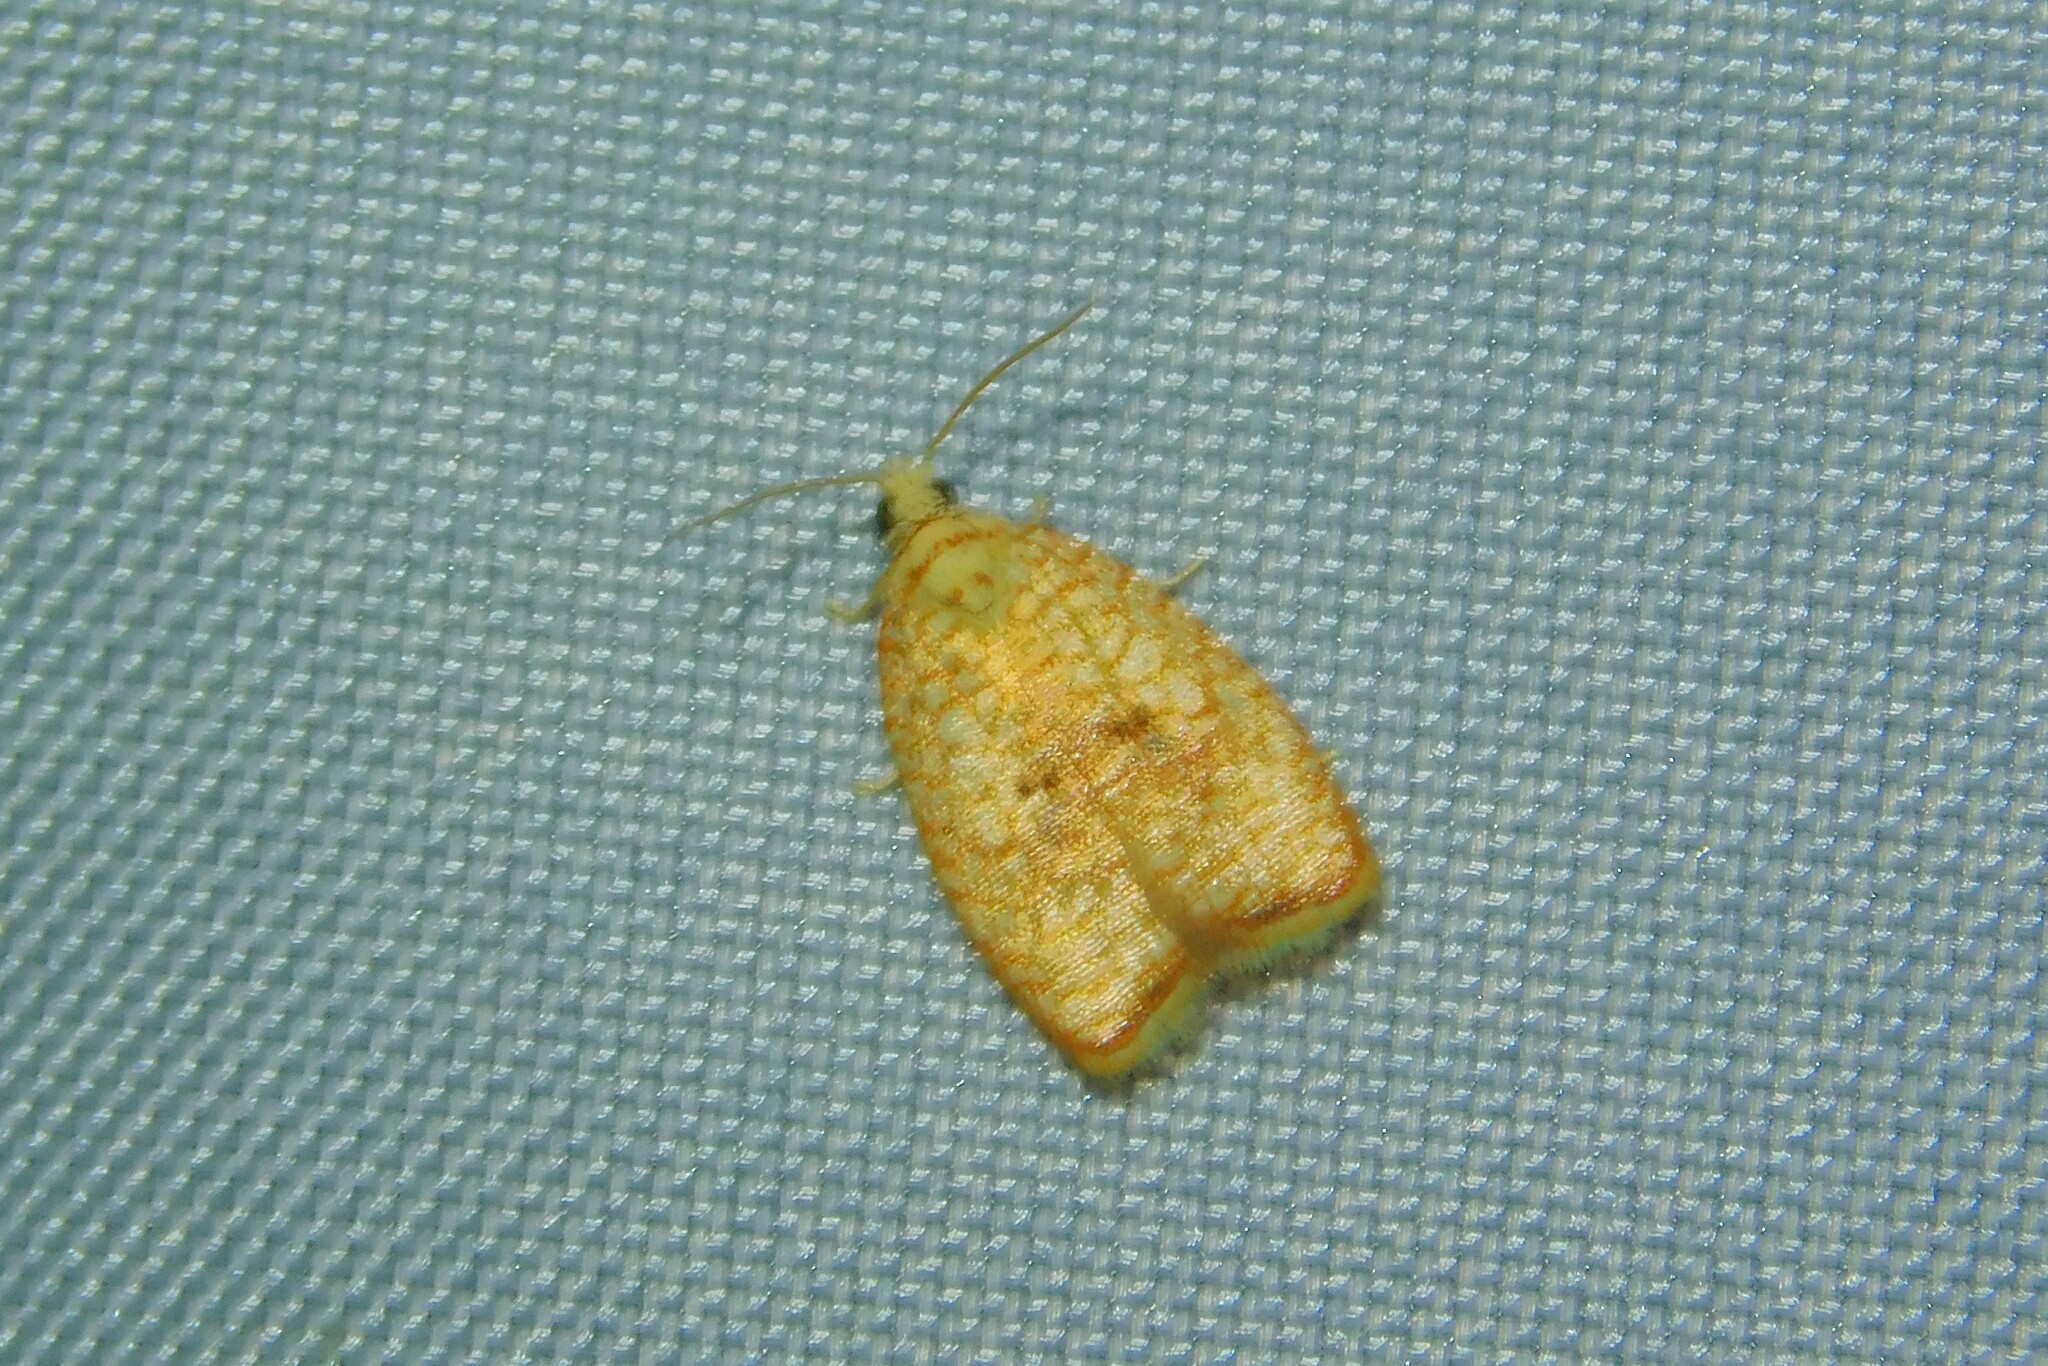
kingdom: Animalia
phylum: Arthropoda
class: Insecta
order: Lepidoptera
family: Tortricidae
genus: Acleris
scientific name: Acleris forsskaleana
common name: Maple button
